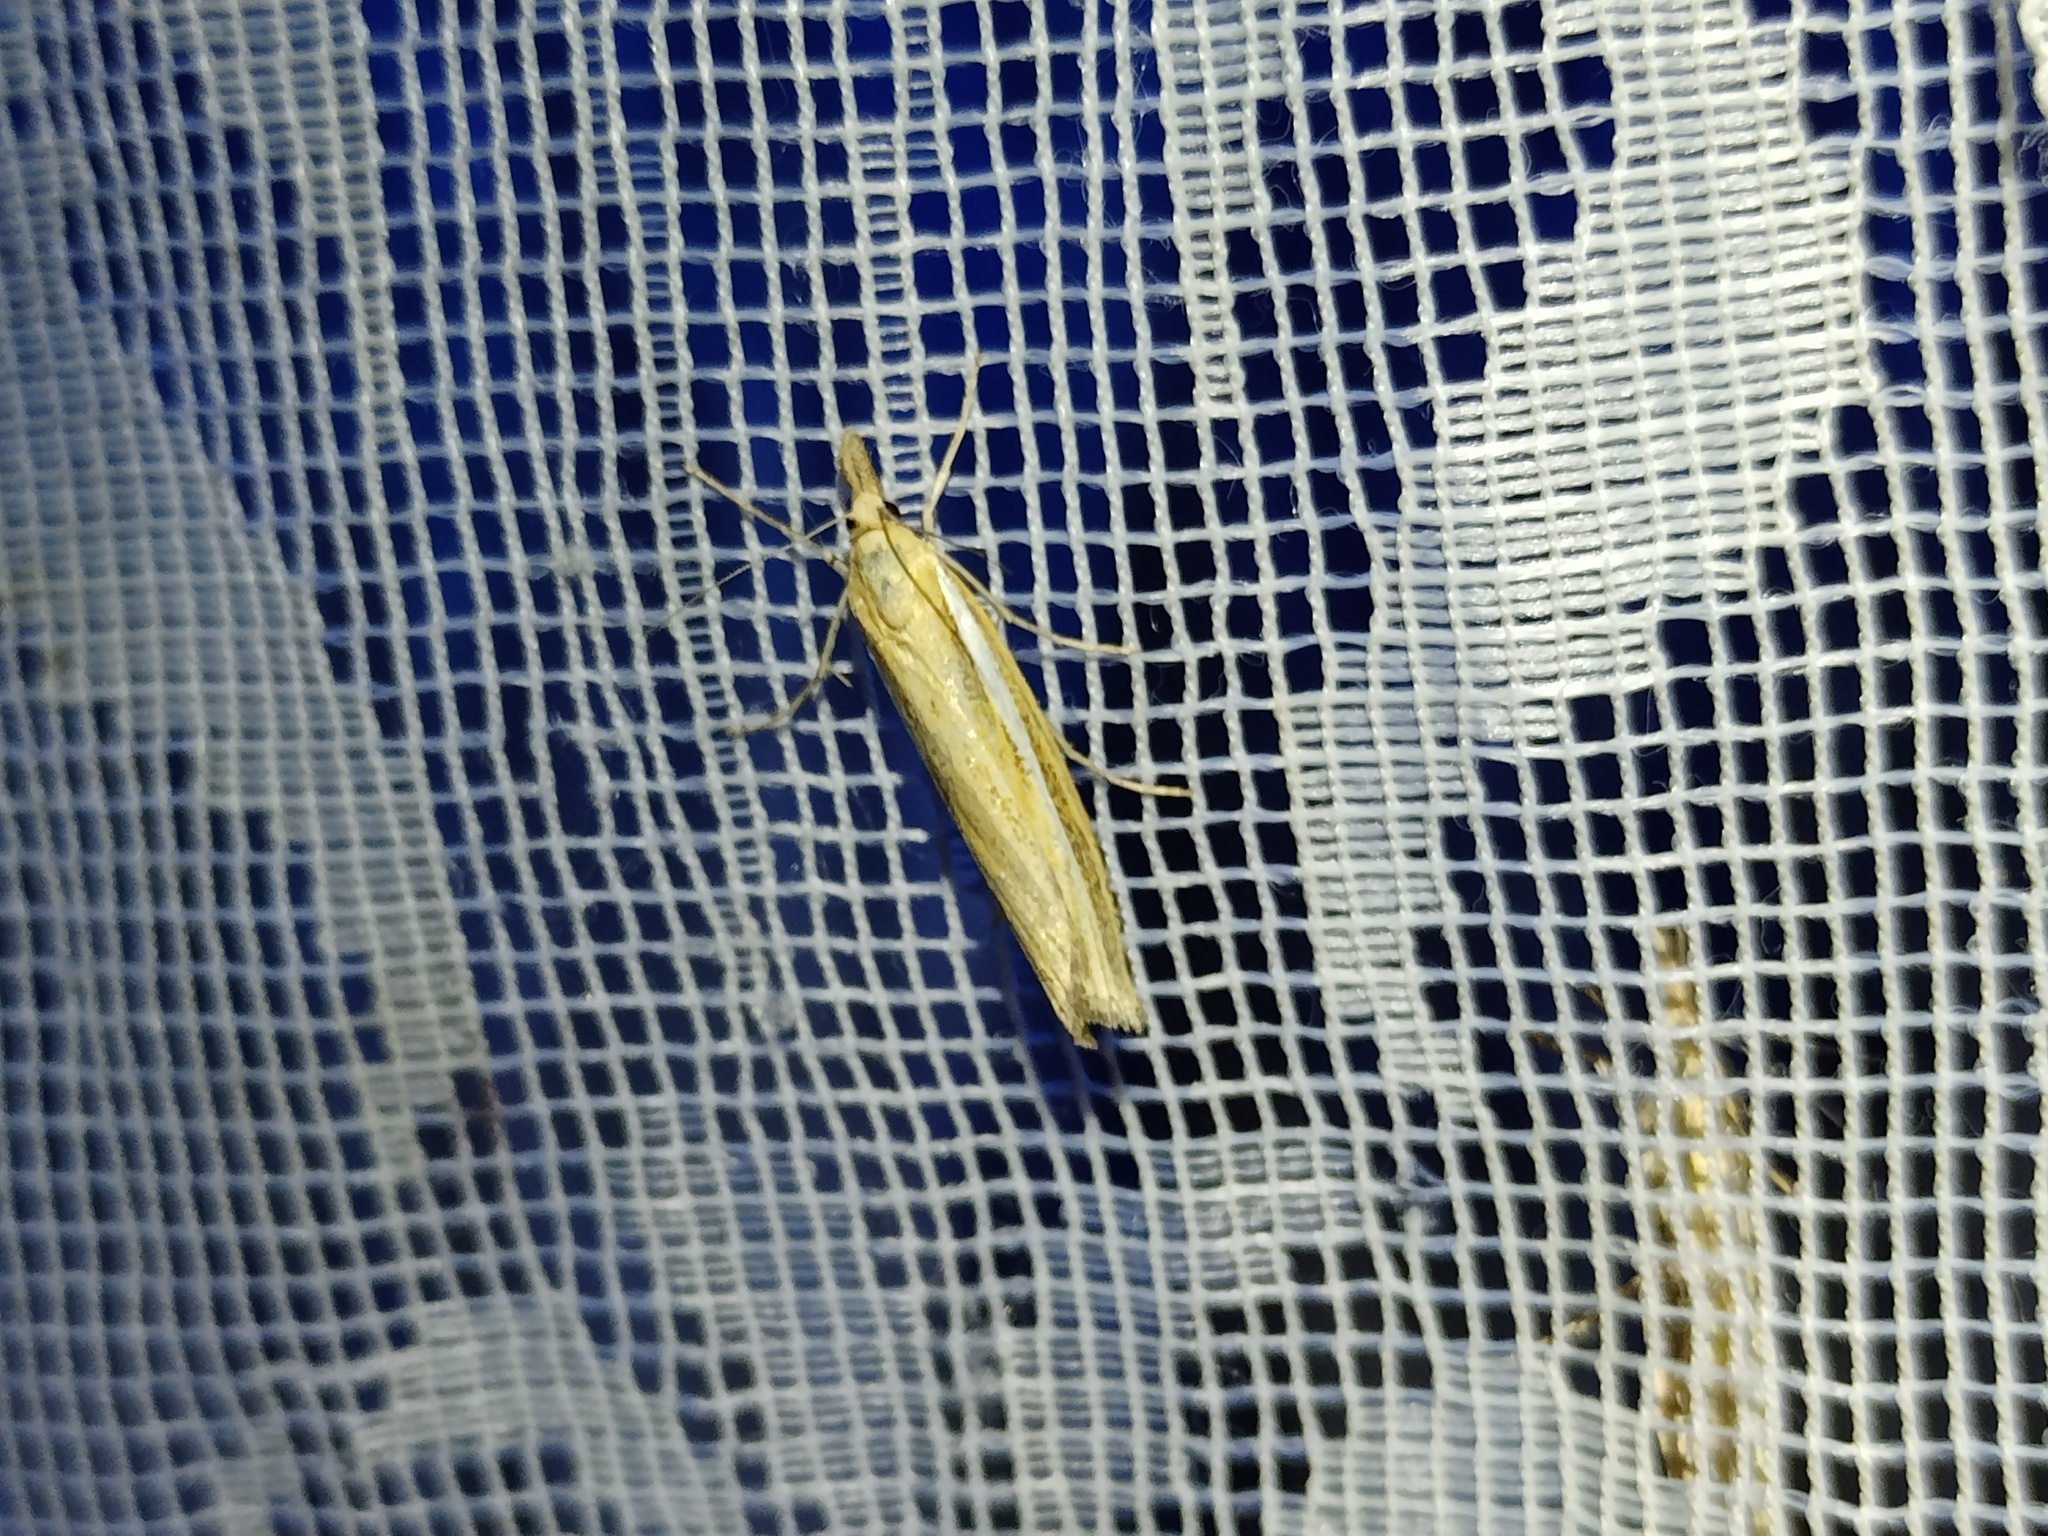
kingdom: Animalia
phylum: Arthropoda
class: Insecta
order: Lepidoptera
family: Crambidae
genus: Agriphila
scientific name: Agriphila tristellus
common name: Common grass-veneer
